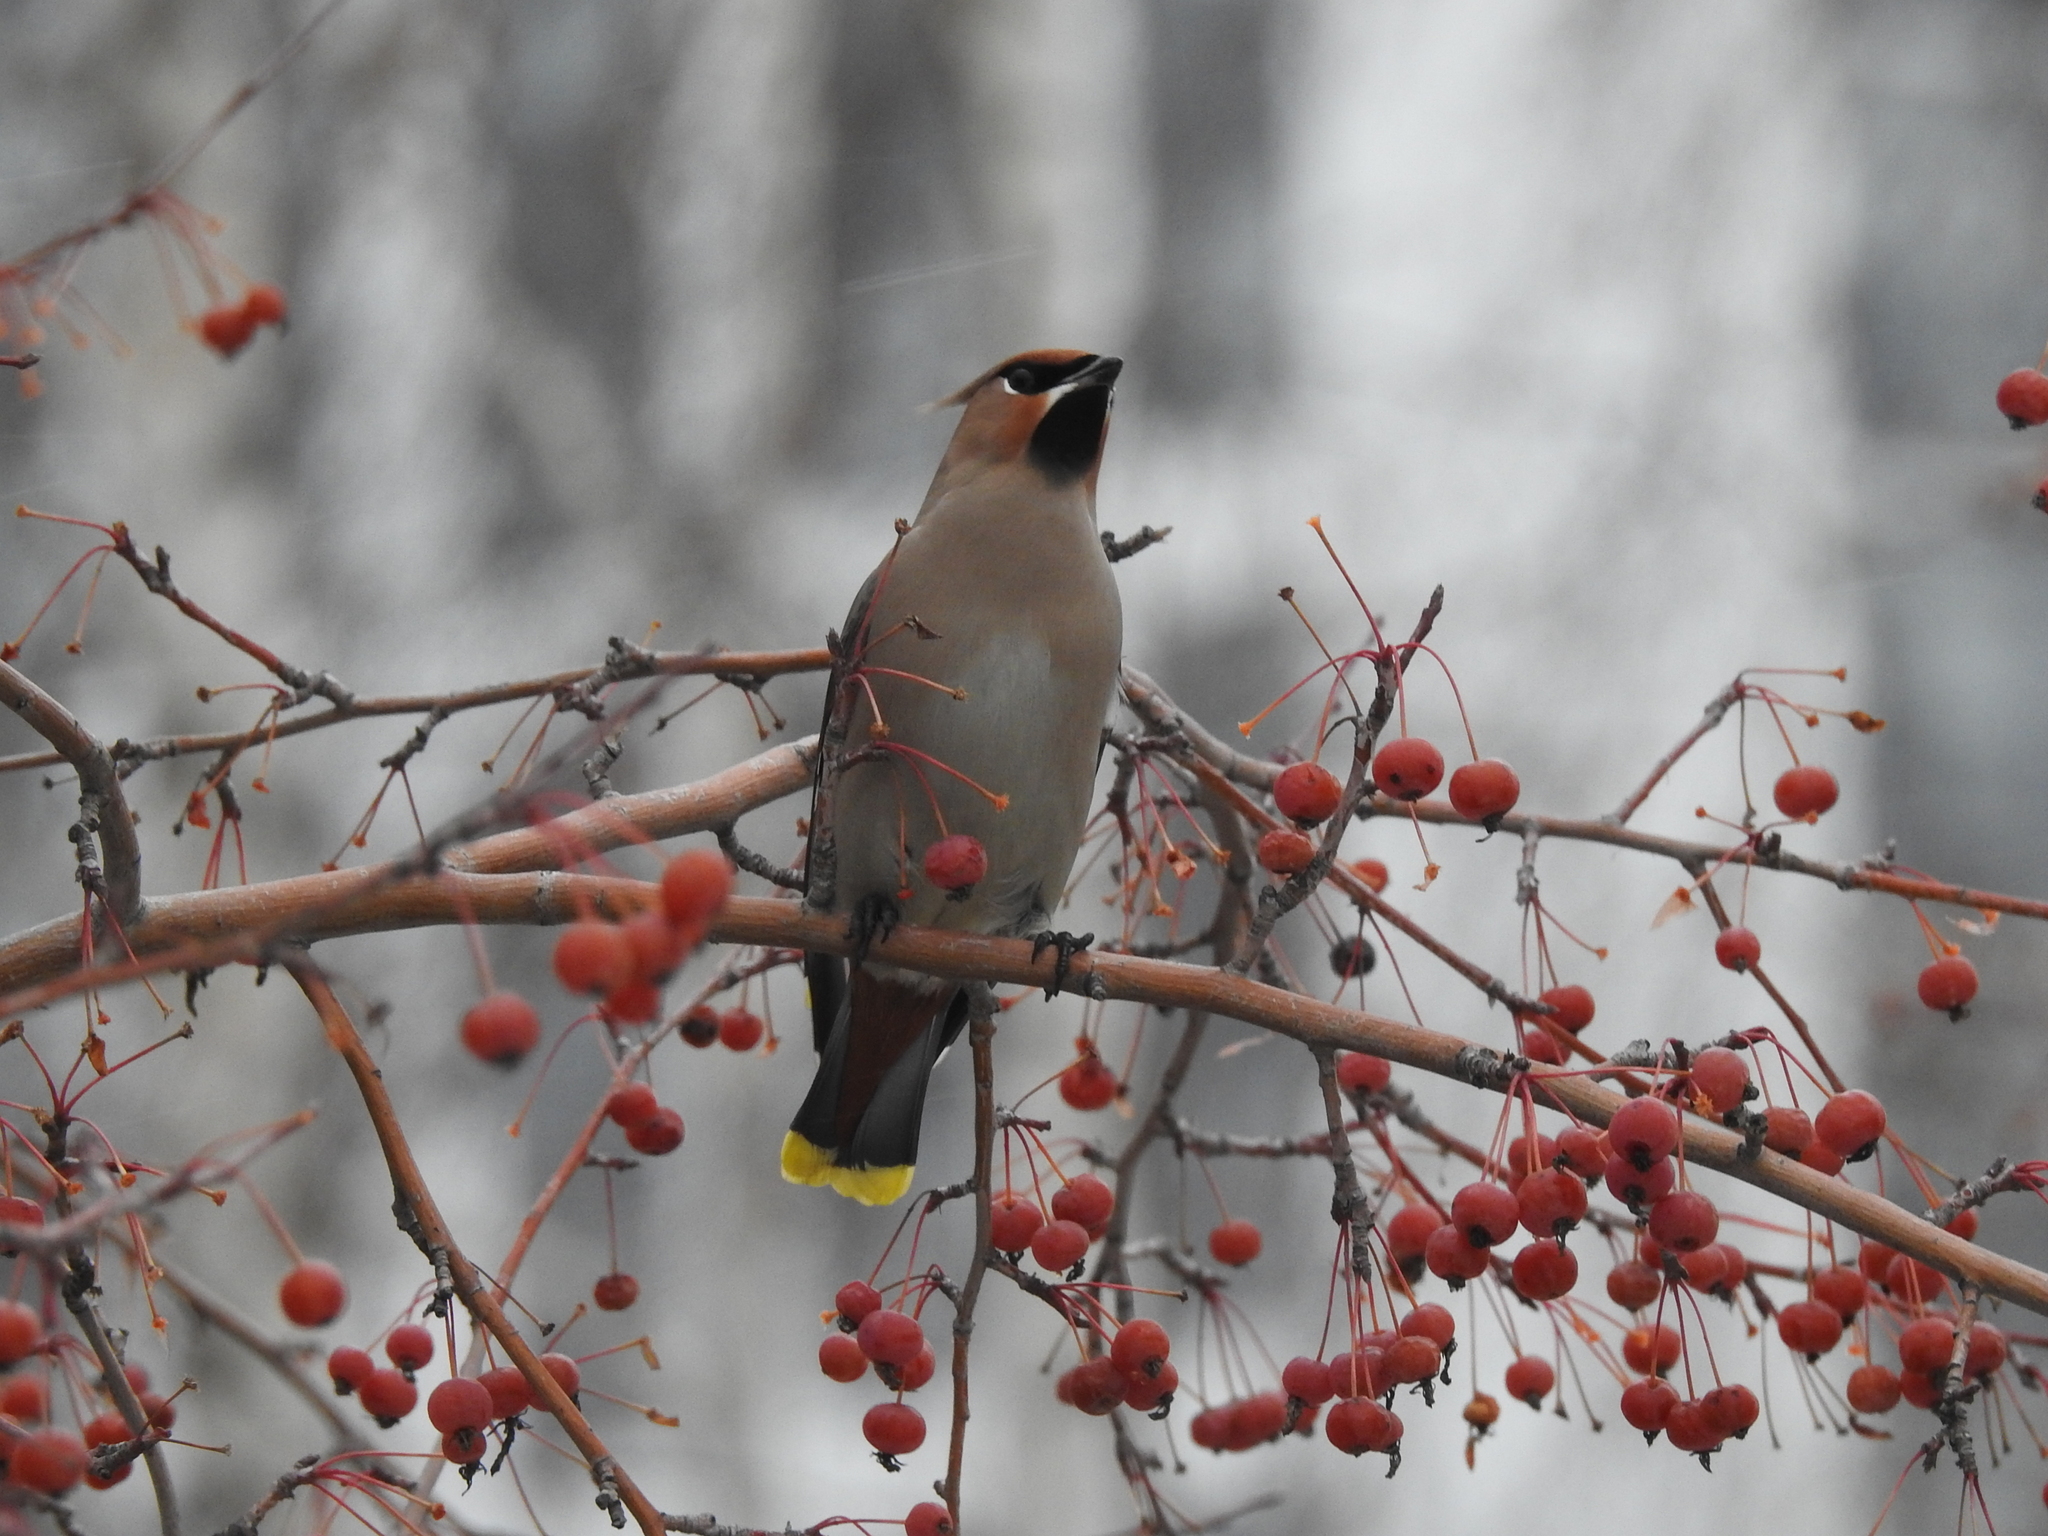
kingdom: Animalia
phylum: Chordata
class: Aves
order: Passeriformes
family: Bombycillidae
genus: Bombycilla
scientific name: Bombycilla garrulus
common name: Bohemian waxwing
